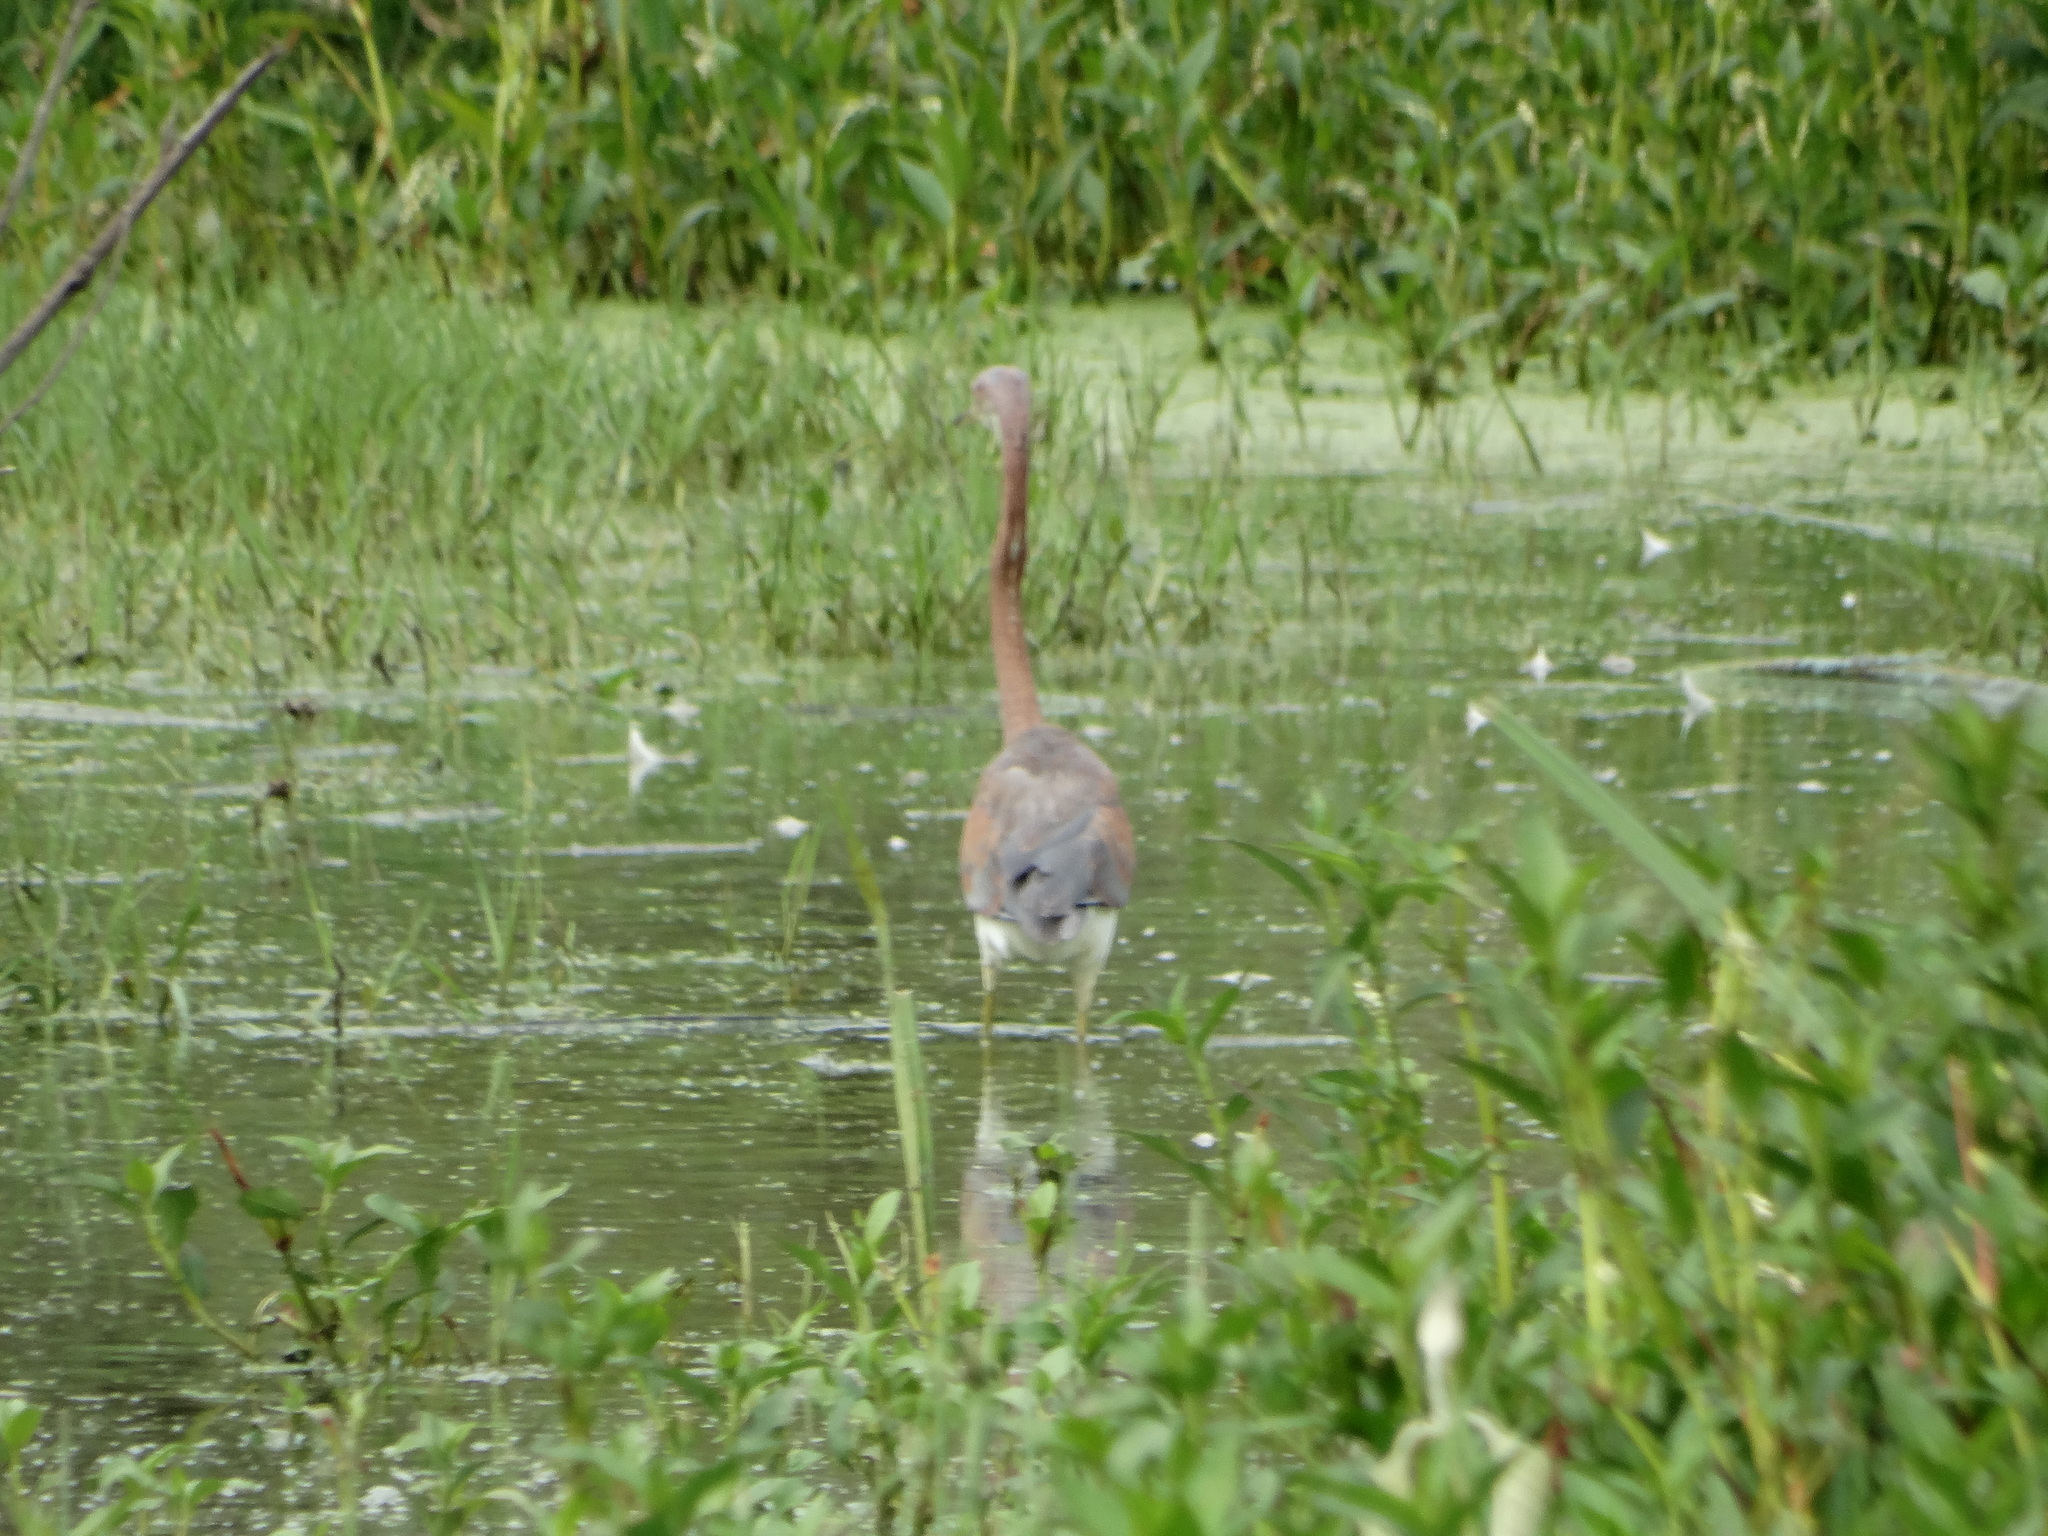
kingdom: Animalia
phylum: Chordata
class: Aves
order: Pelecaniformes
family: Ardeidae
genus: Egretta
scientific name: Egretta tricolor
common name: Tricolored heron
